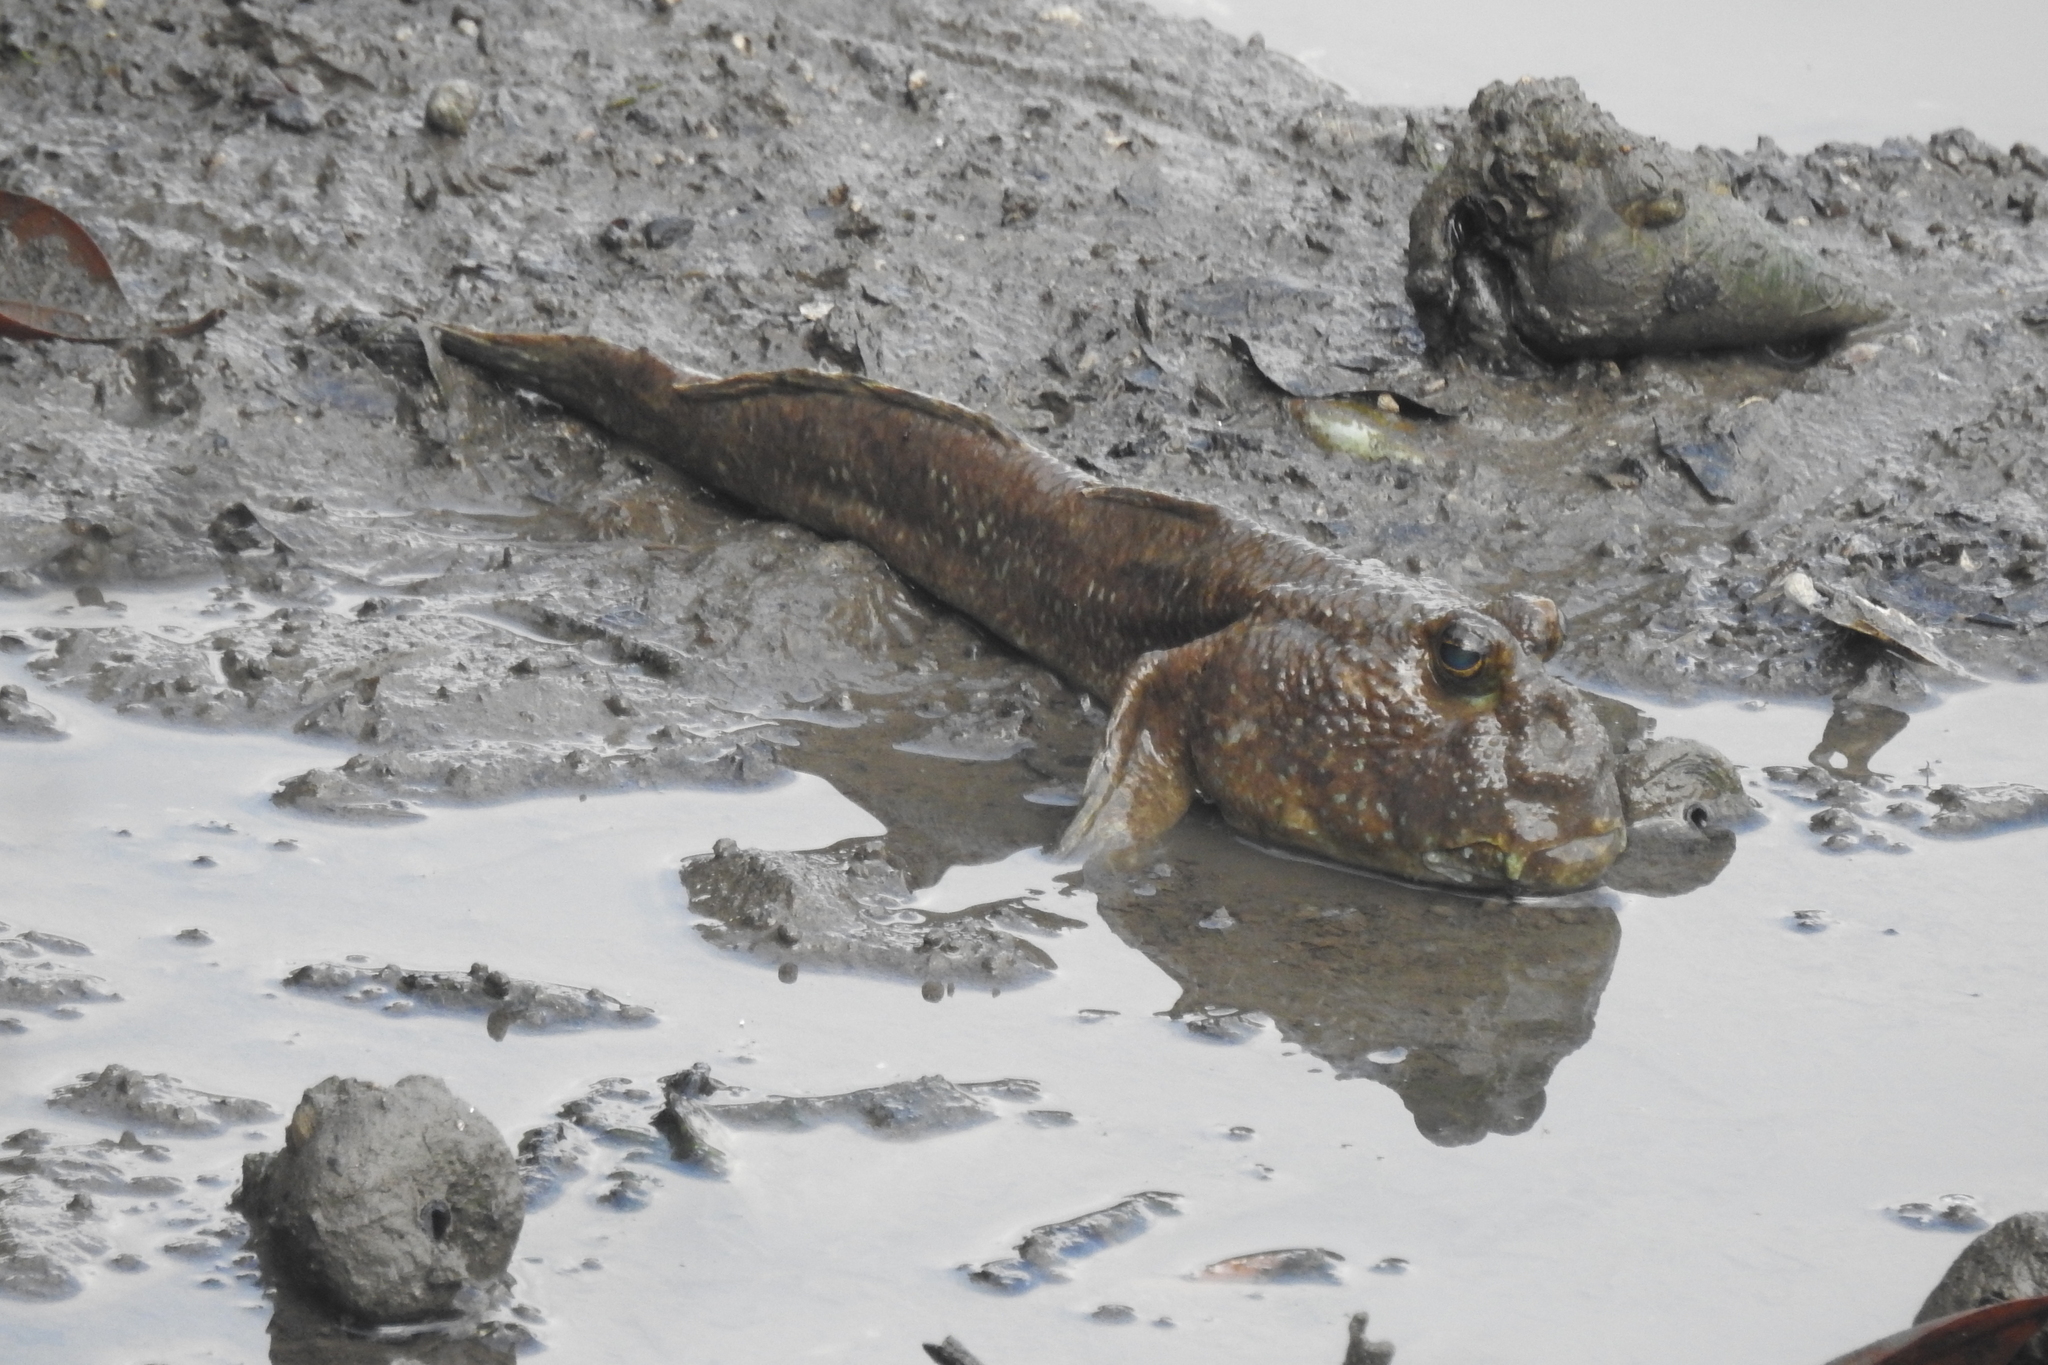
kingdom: Animalia
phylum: Chordata
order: Perciformes
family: Gobiidae
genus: Periophthalmodon
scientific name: Periophthalmodon schlosseri
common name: Giant mudskipper
